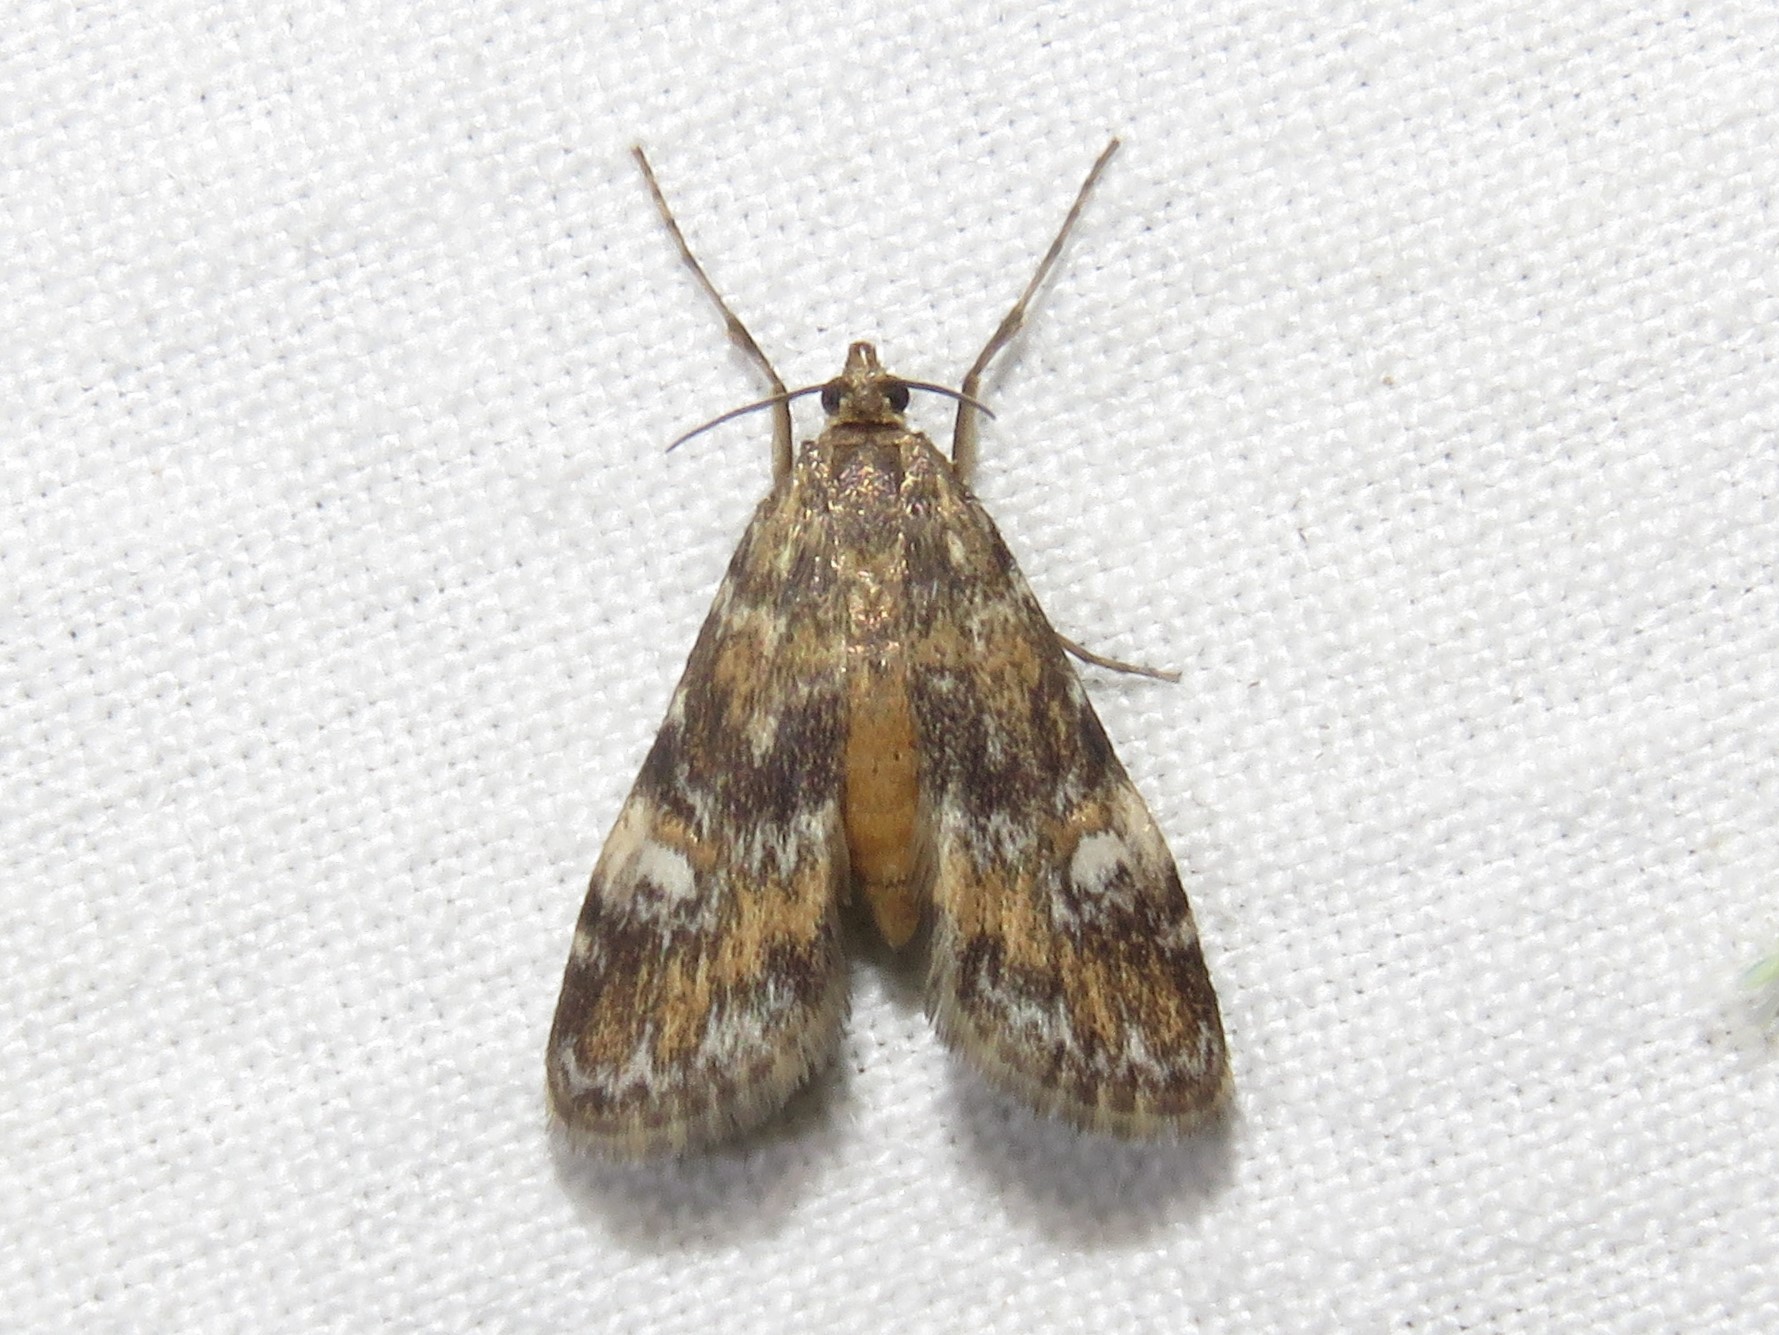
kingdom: Animalia
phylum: Arthropoda
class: Insecta
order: Lepidoptera
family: Crambidae
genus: Elophila
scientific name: Elophila obliteralis
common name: Waterlily leafcutter moth
